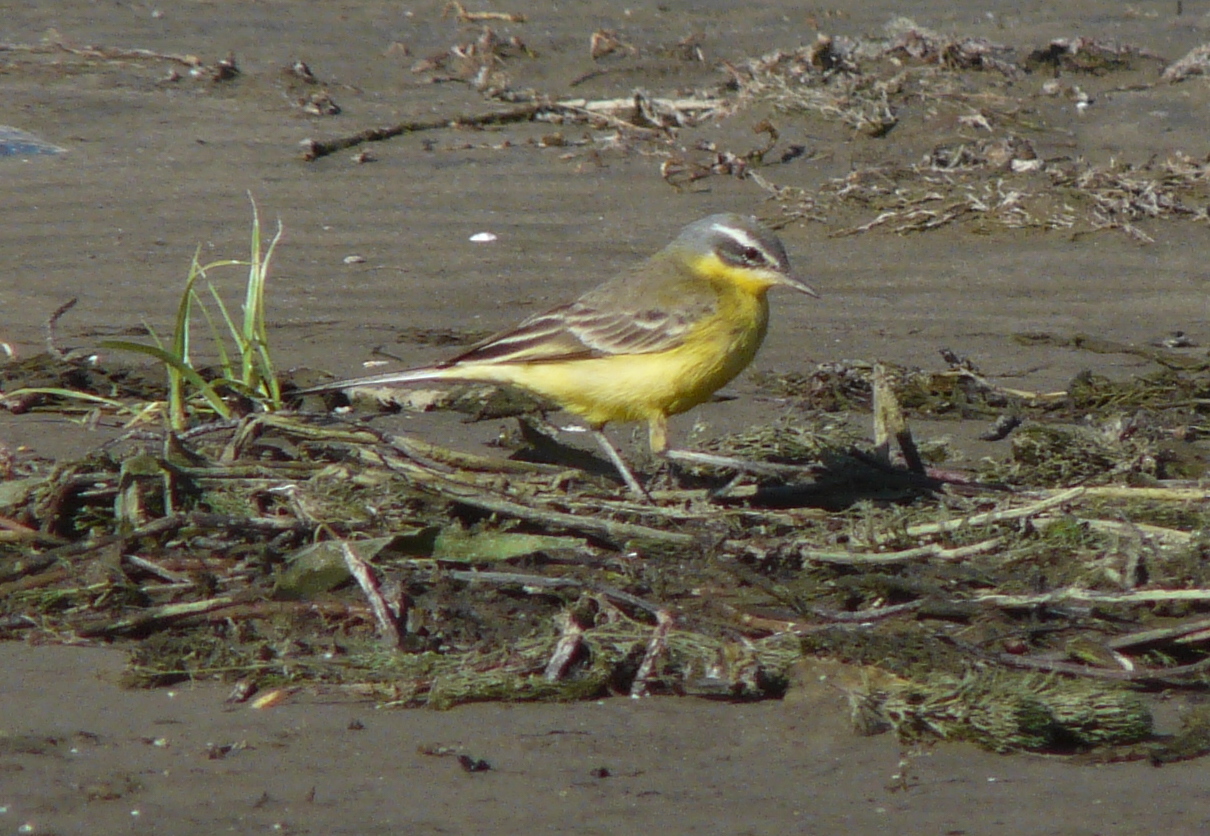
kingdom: Animalia
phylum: Chordata
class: Aves
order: Passeriformes
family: Motacillidae
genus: Motacilla
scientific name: Motacilla flava
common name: Western yellow wagtail
